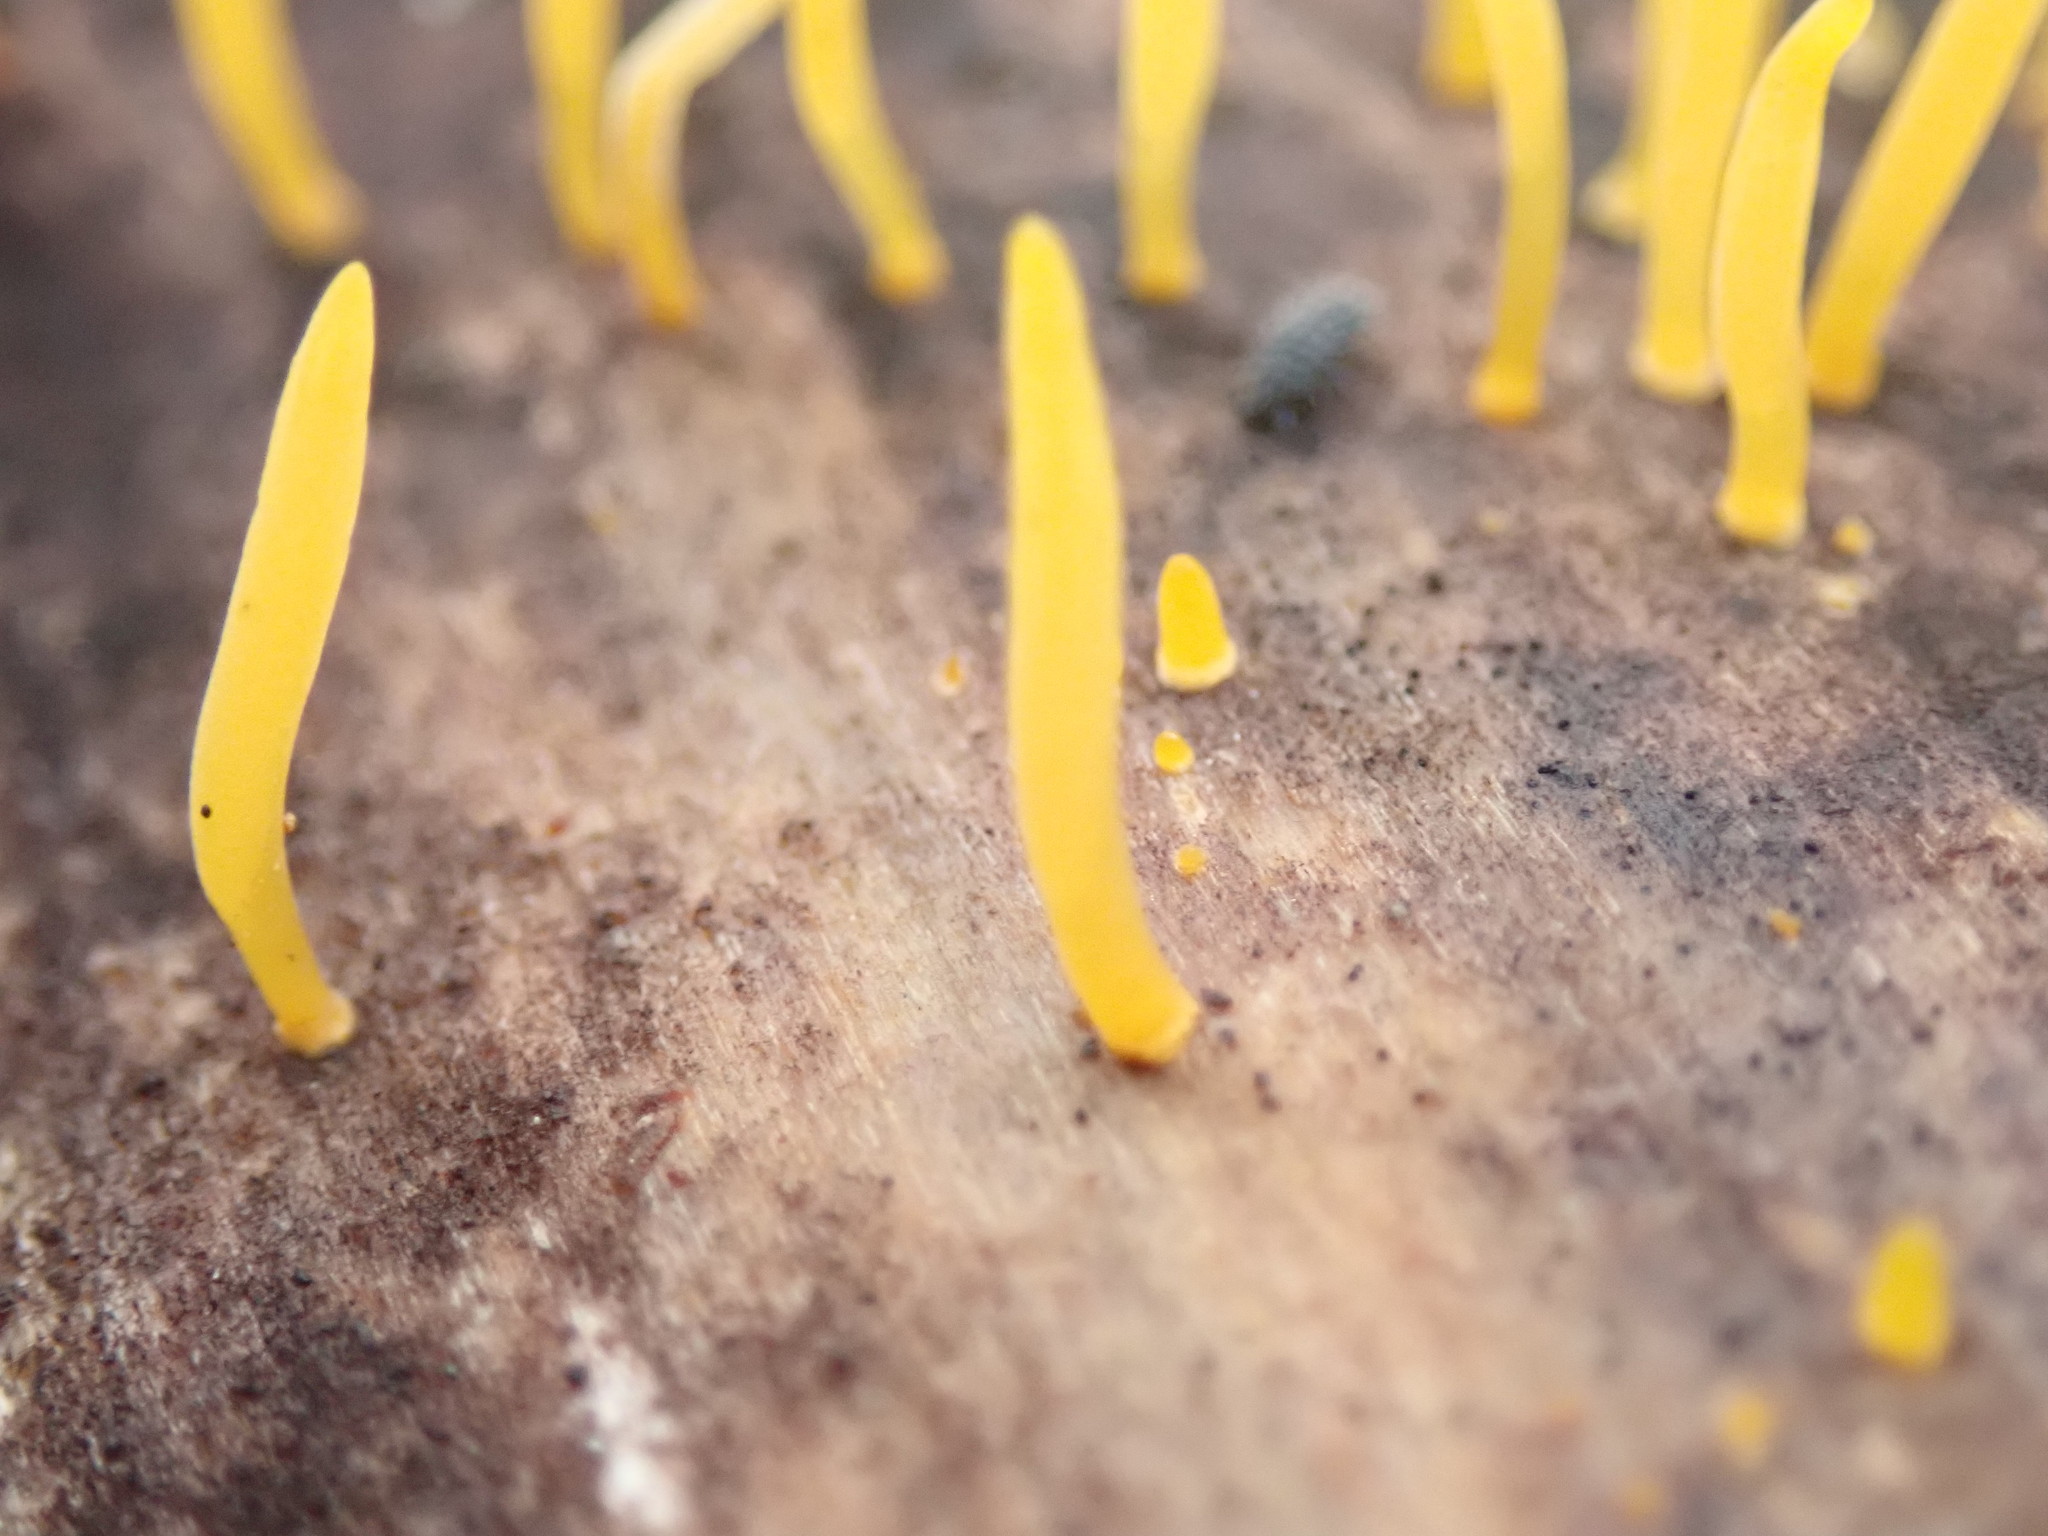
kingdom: Fungi
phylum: Basidiomycota
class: Dacrymycetes
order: Dacrymycetales
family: Dacrymycetaceae
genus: Calocera
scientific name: Calocera cornea
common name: Small stagshorn
